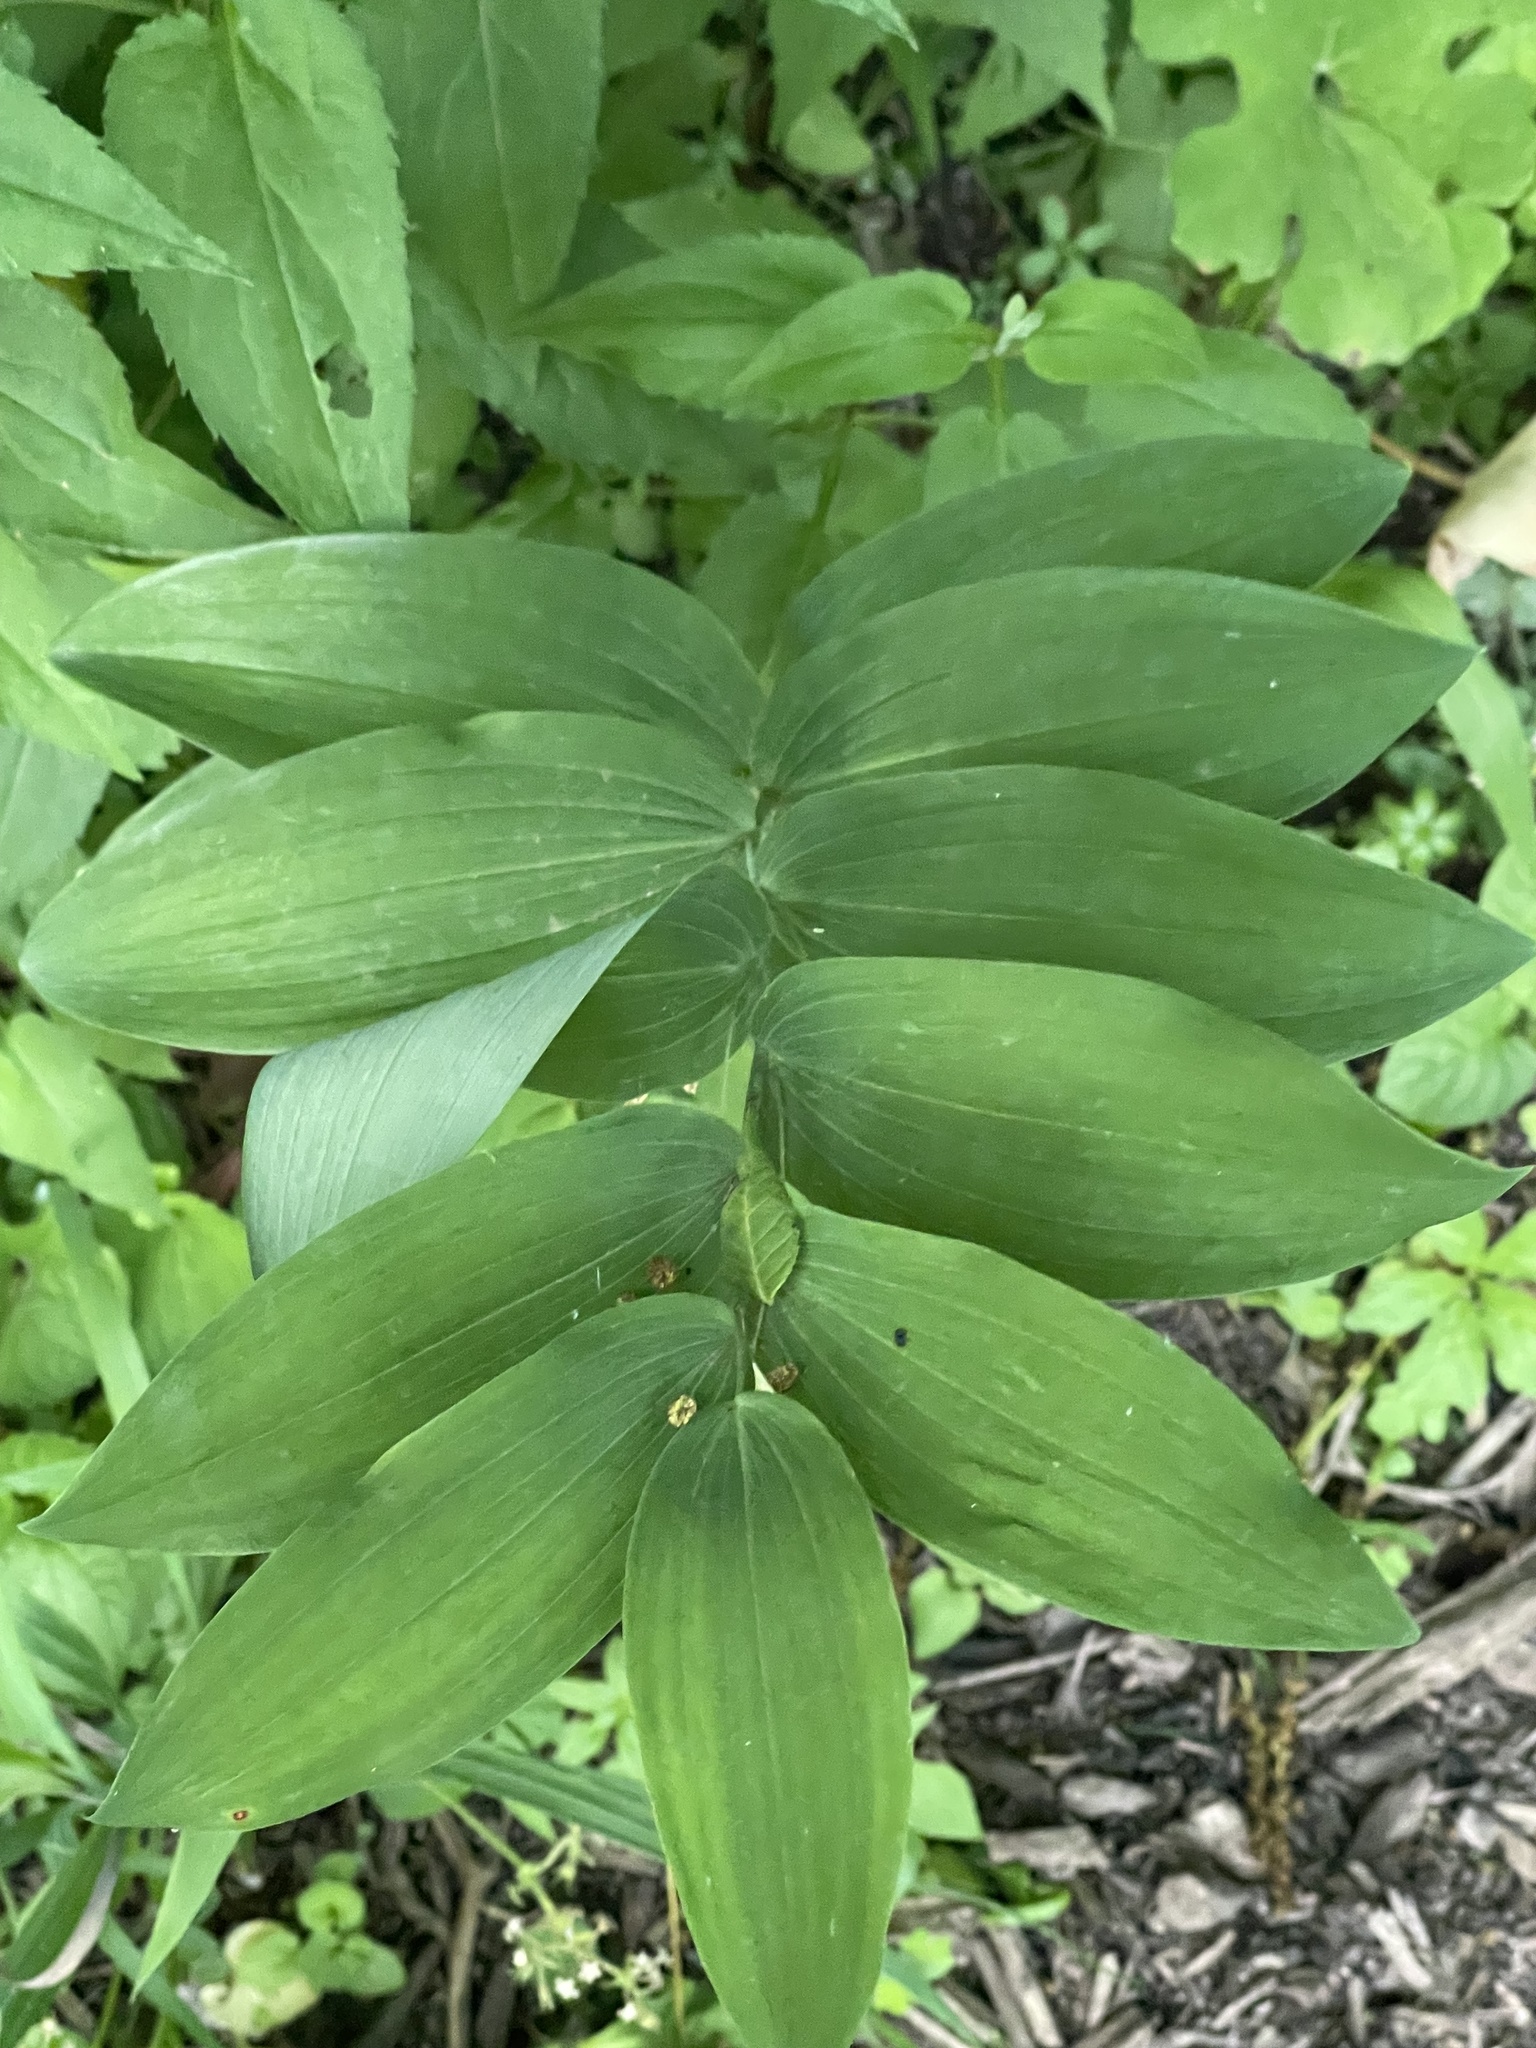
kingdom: Plantae
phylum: Tracheophyta
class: Liliopsida
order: Asparagales
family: Asparagaceae
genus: Polygonatum
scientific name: Polygonatum biflorum
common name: American solomon's-seal
